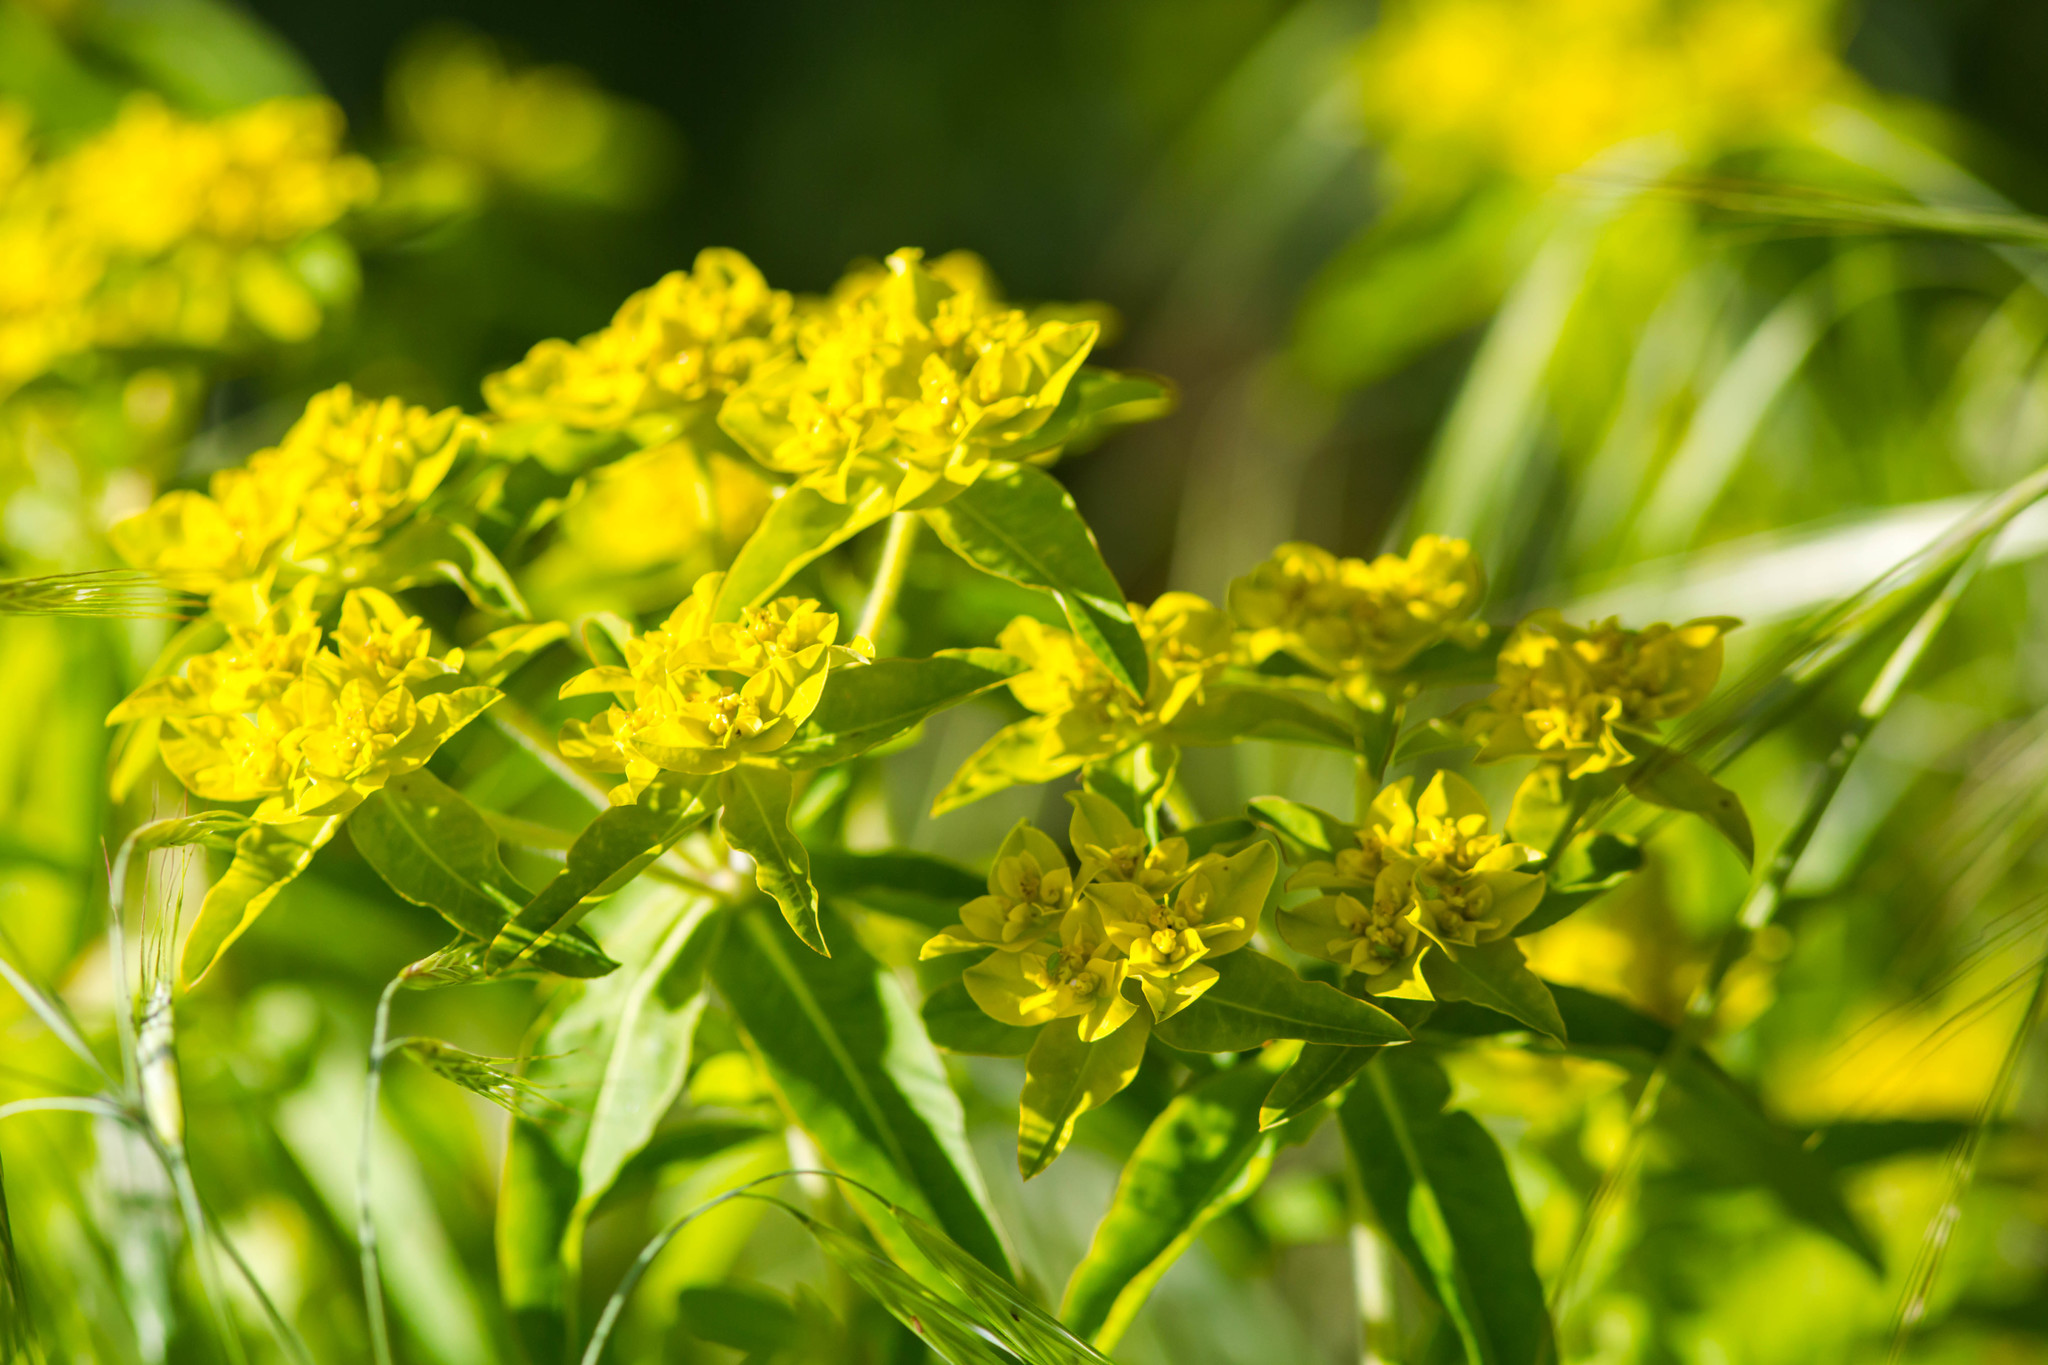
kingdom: Plantae
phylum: Tracheophyta
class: Magnoliopsida
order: Malpighiales
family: Euphorbiaceae
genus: Euphorbia
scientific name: Euphorbia oblongata
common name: Balkan spurge
